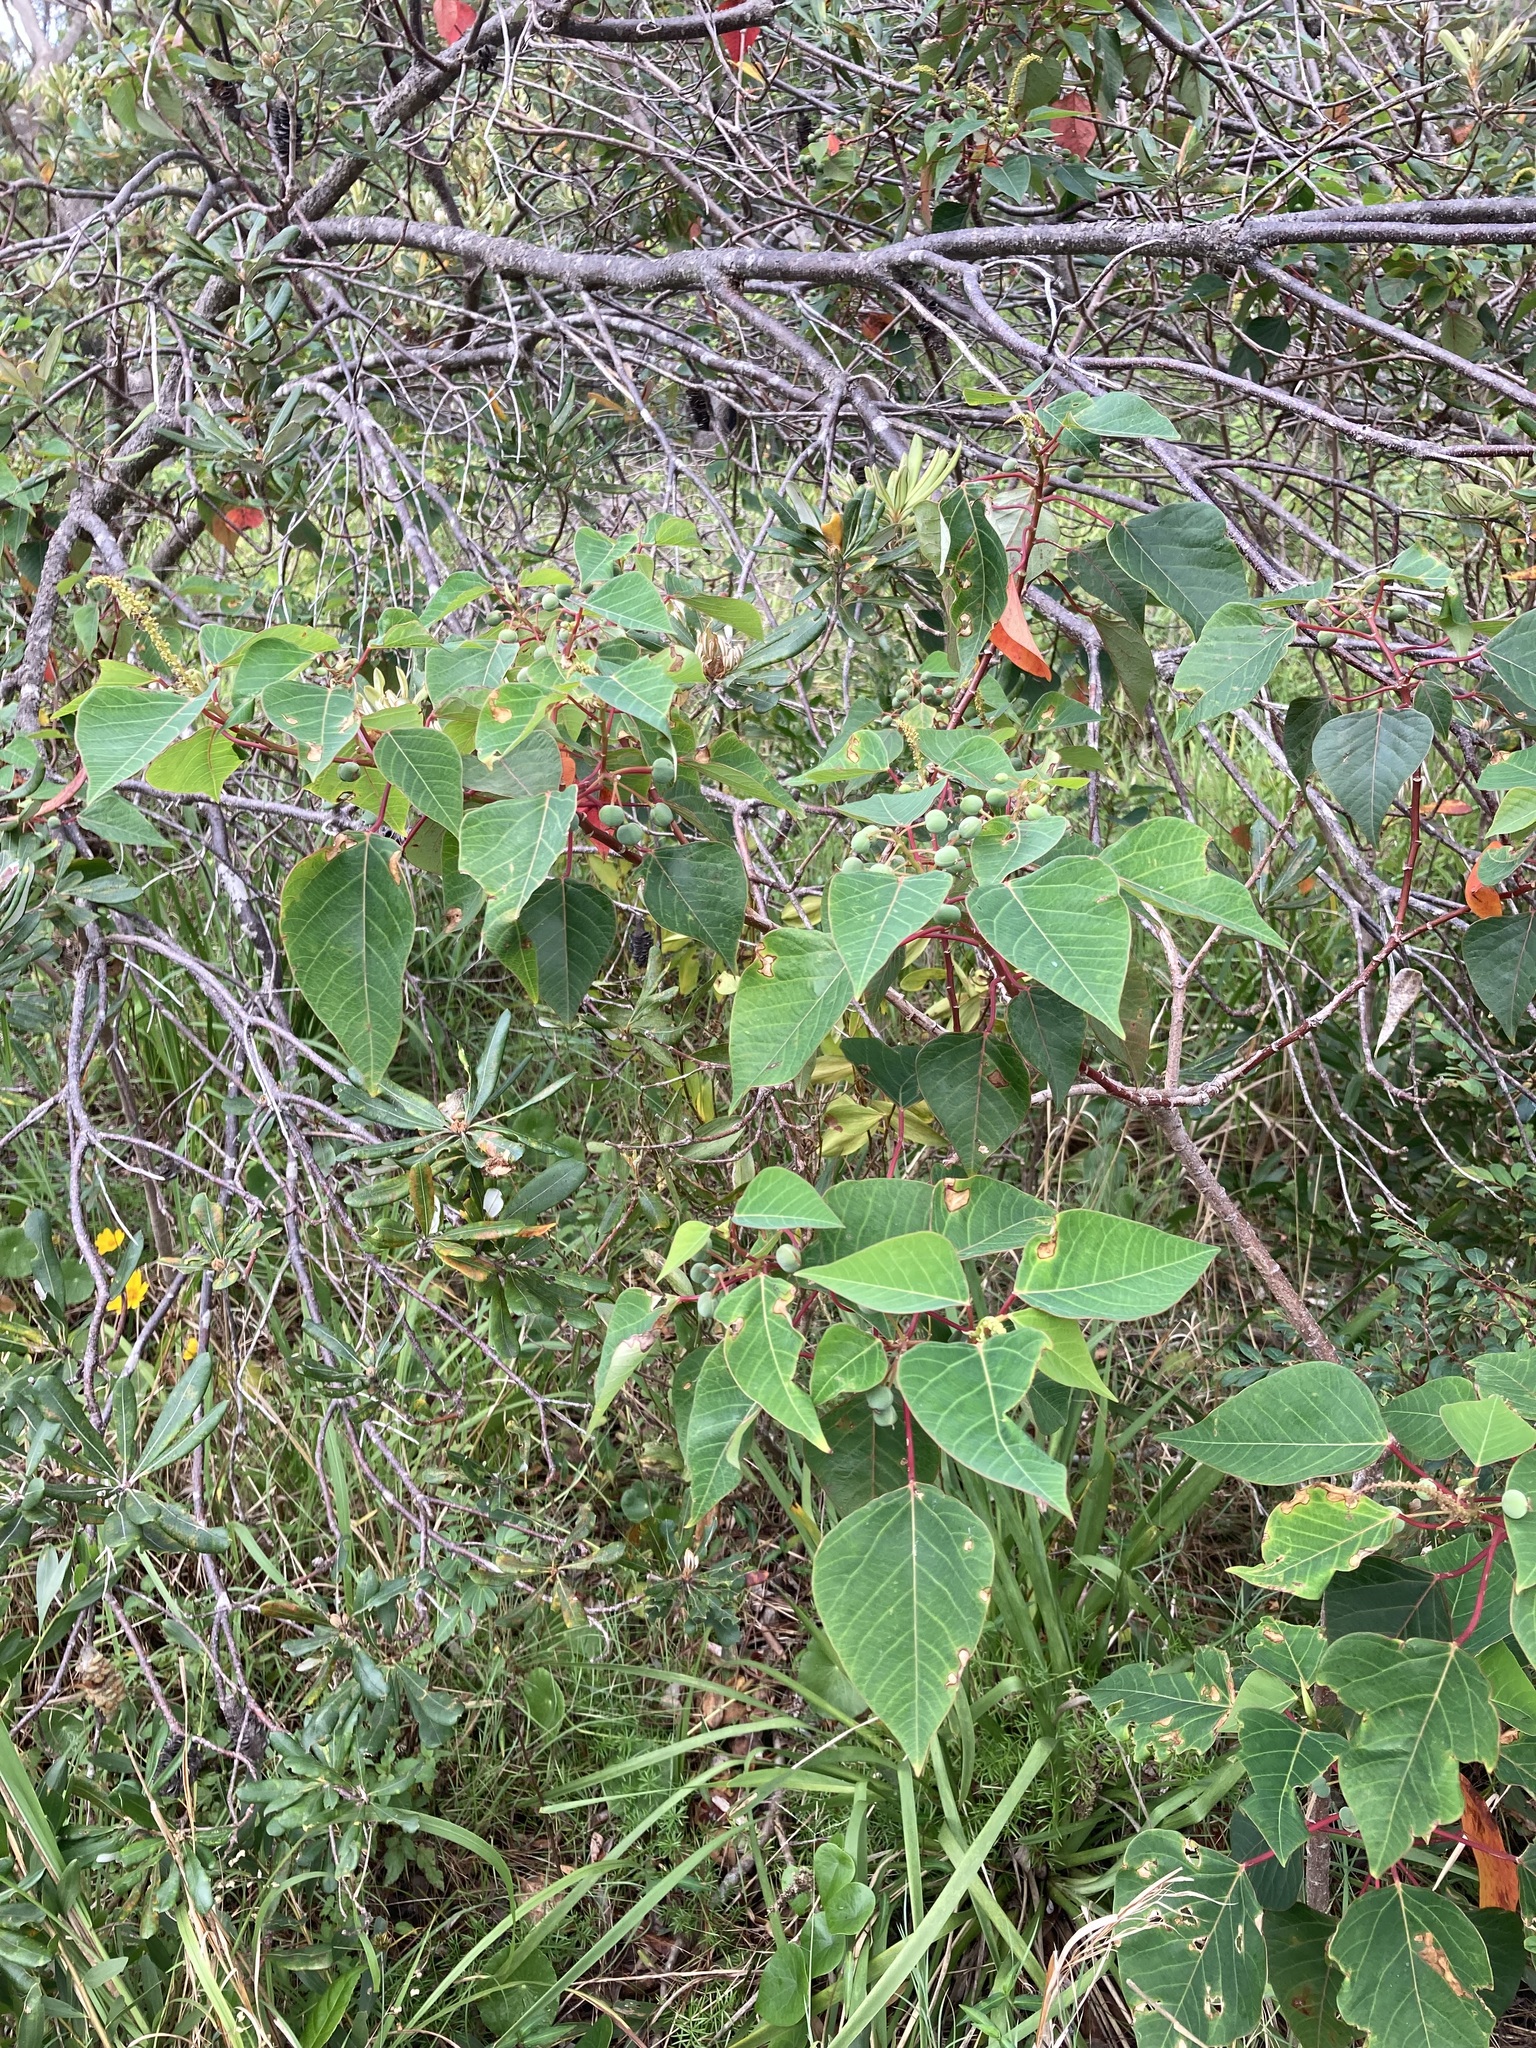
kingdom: Plantae
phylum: Tracheophyta
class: Magnoliopsida
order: Malpighiales
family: Euphorbiaceae
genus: Homalanthus
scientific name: Homalanthus populifolius
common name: Queensland poplar
